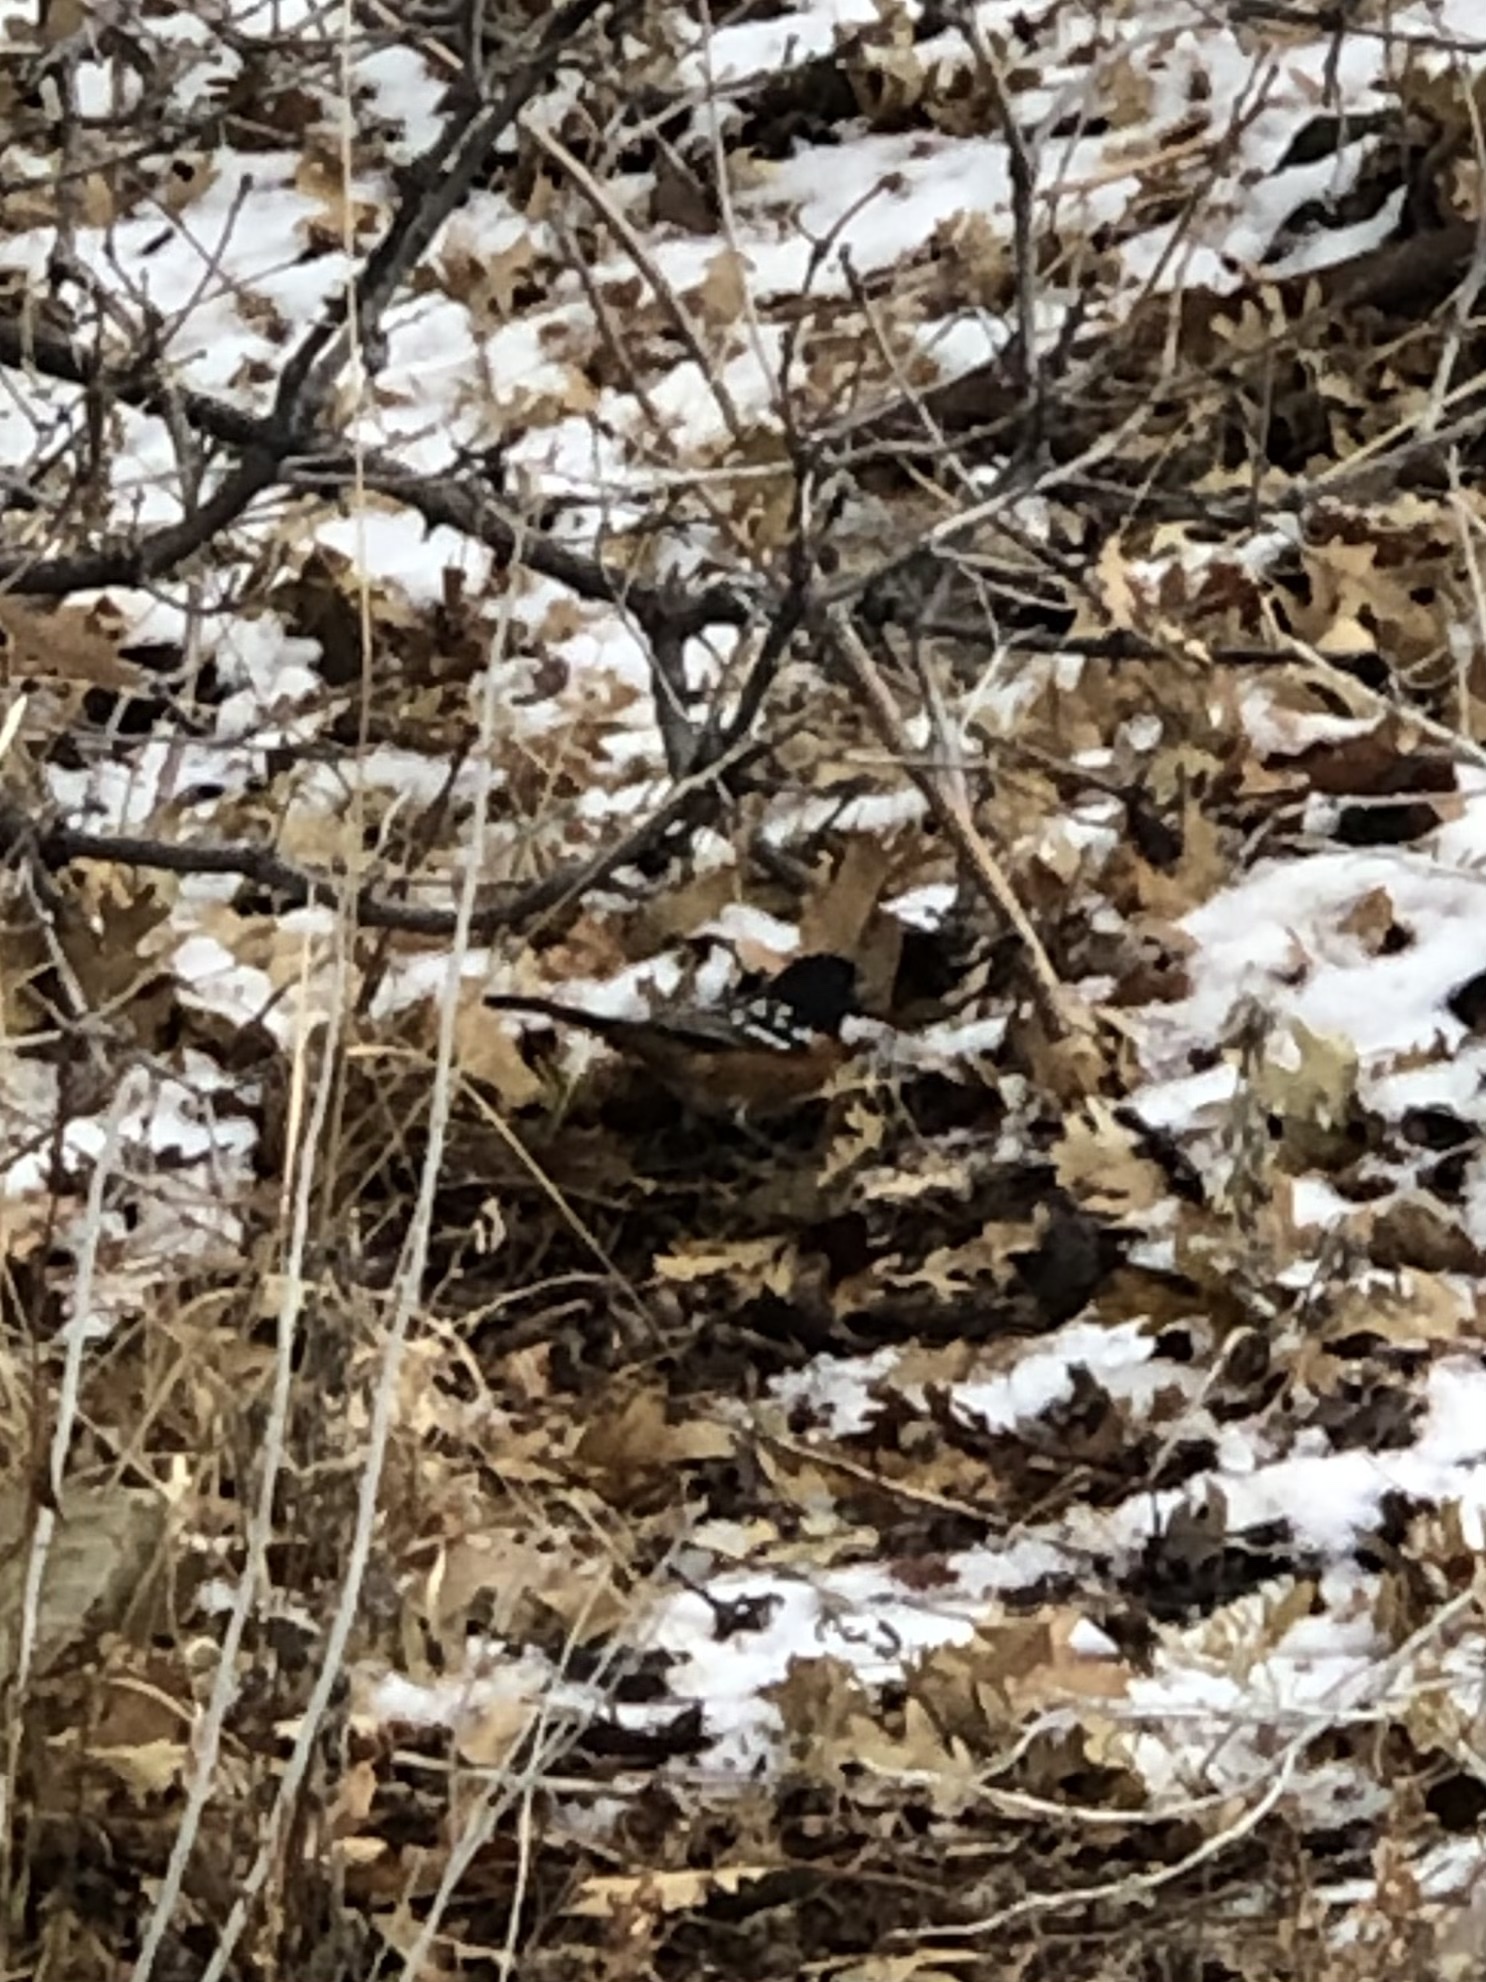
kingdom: Animalia
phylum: Chordata
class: Aves
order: Passeriformes
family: Passerellidae
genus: Pipilo
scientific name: Pipilo maculatus
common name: Spotted towhee
